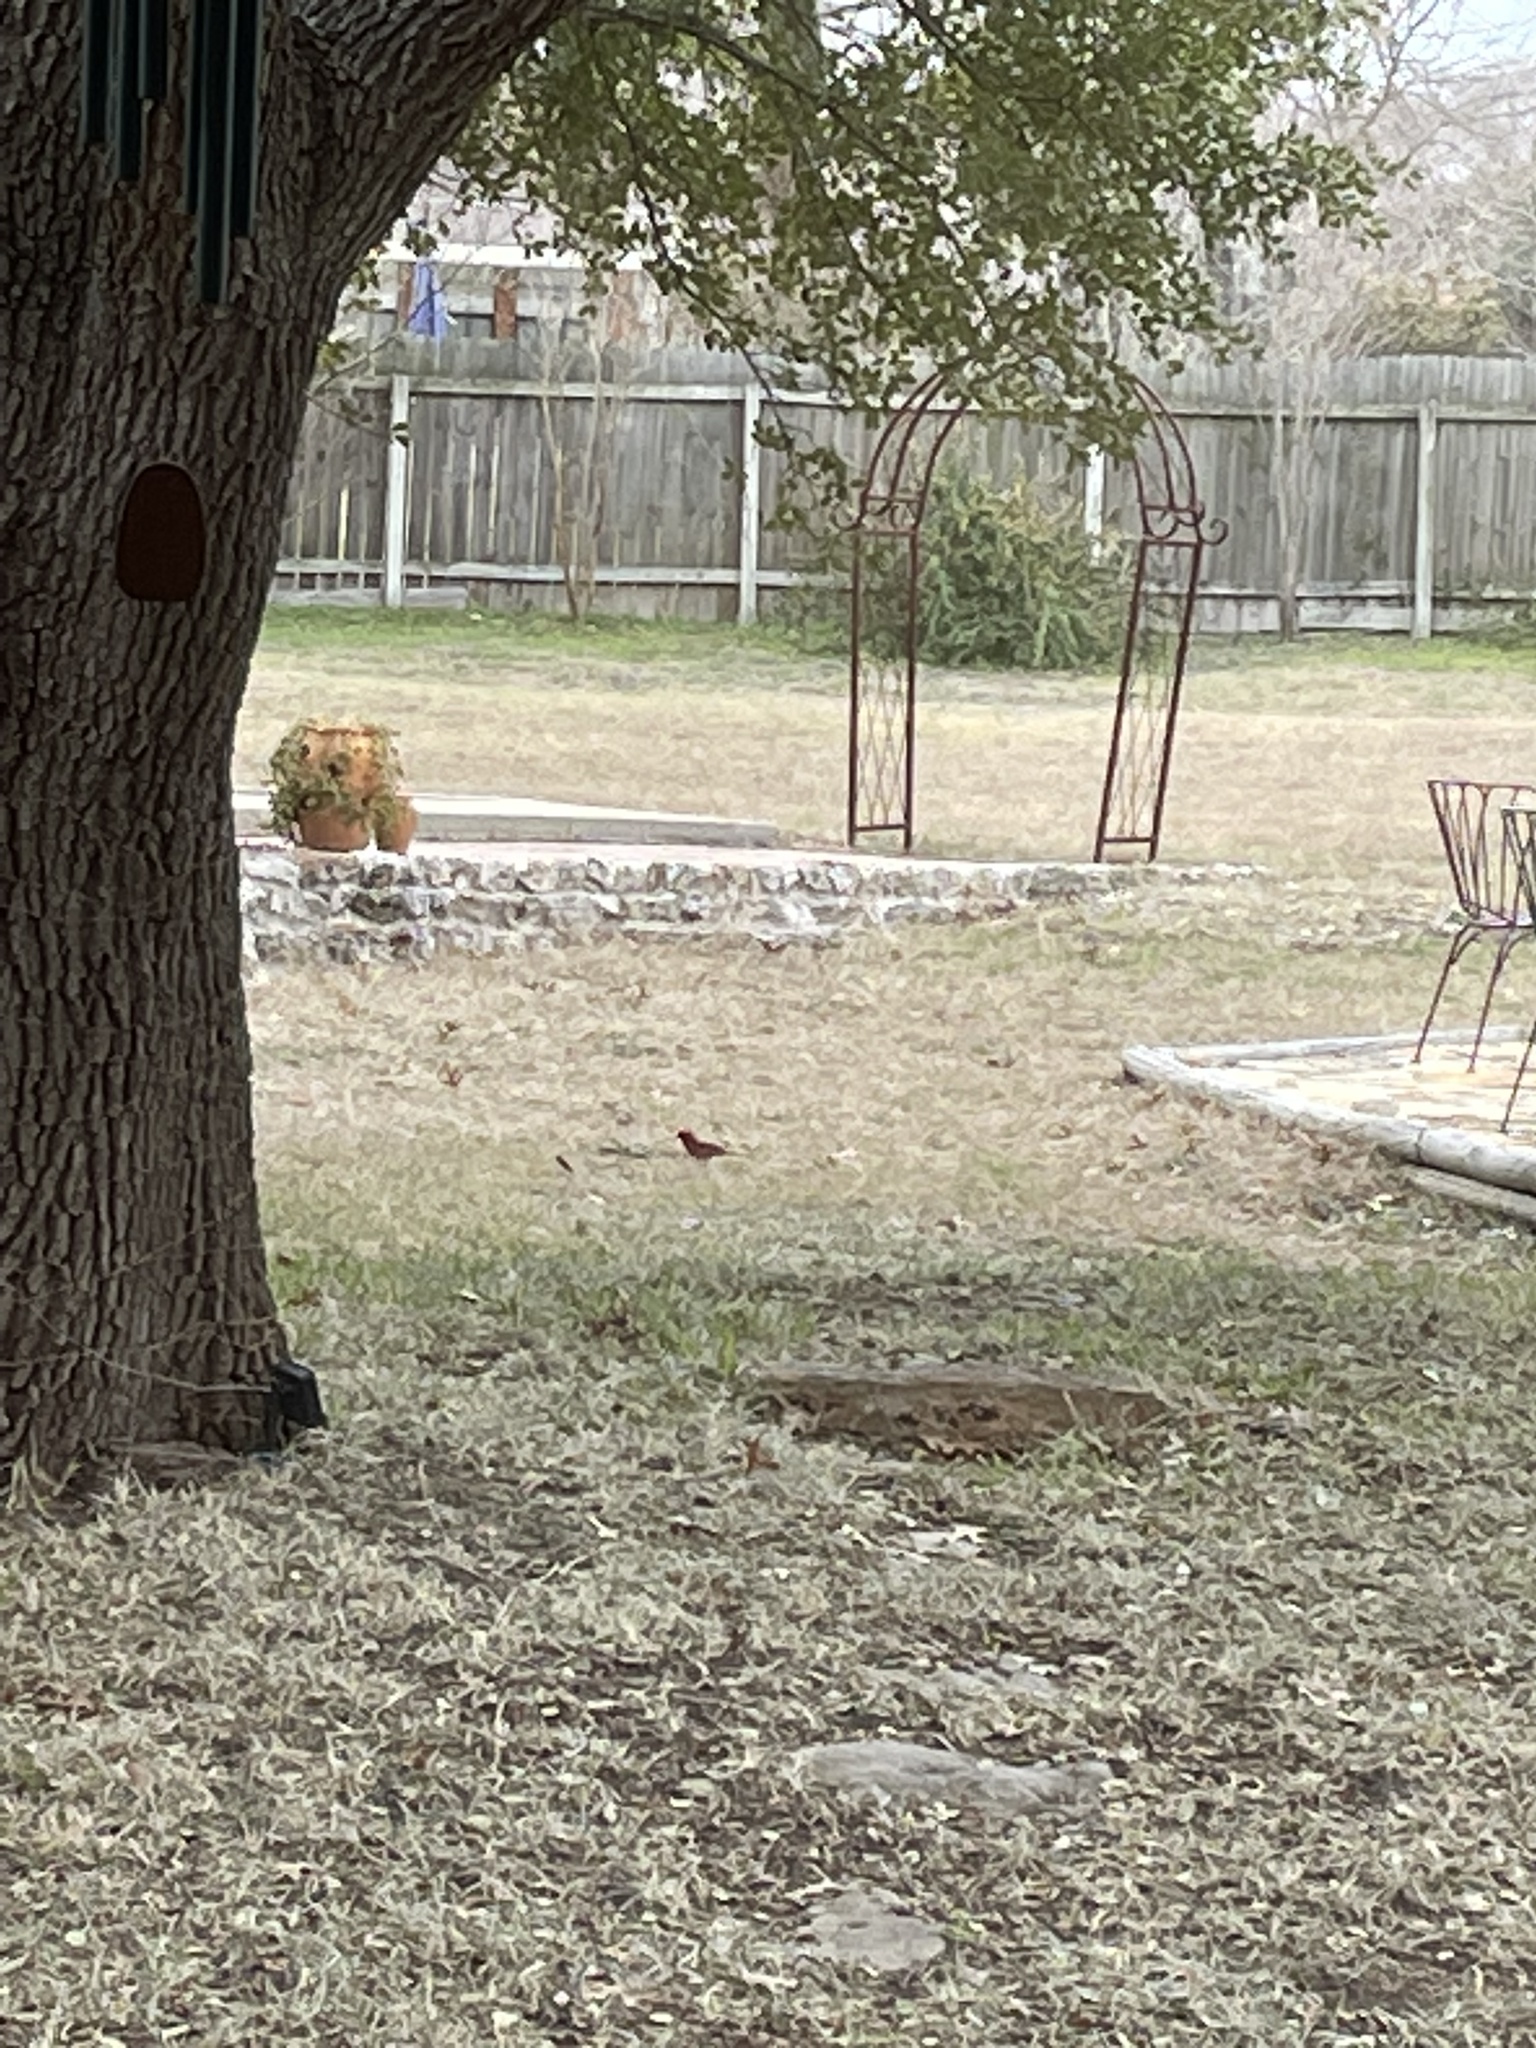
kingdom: Animalia
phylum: Chordata
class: Aves
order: Passeriformes
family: Cardinalidae
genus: Cardinalis
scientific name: Cardinalis cardinalis
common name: Northern cardinal
